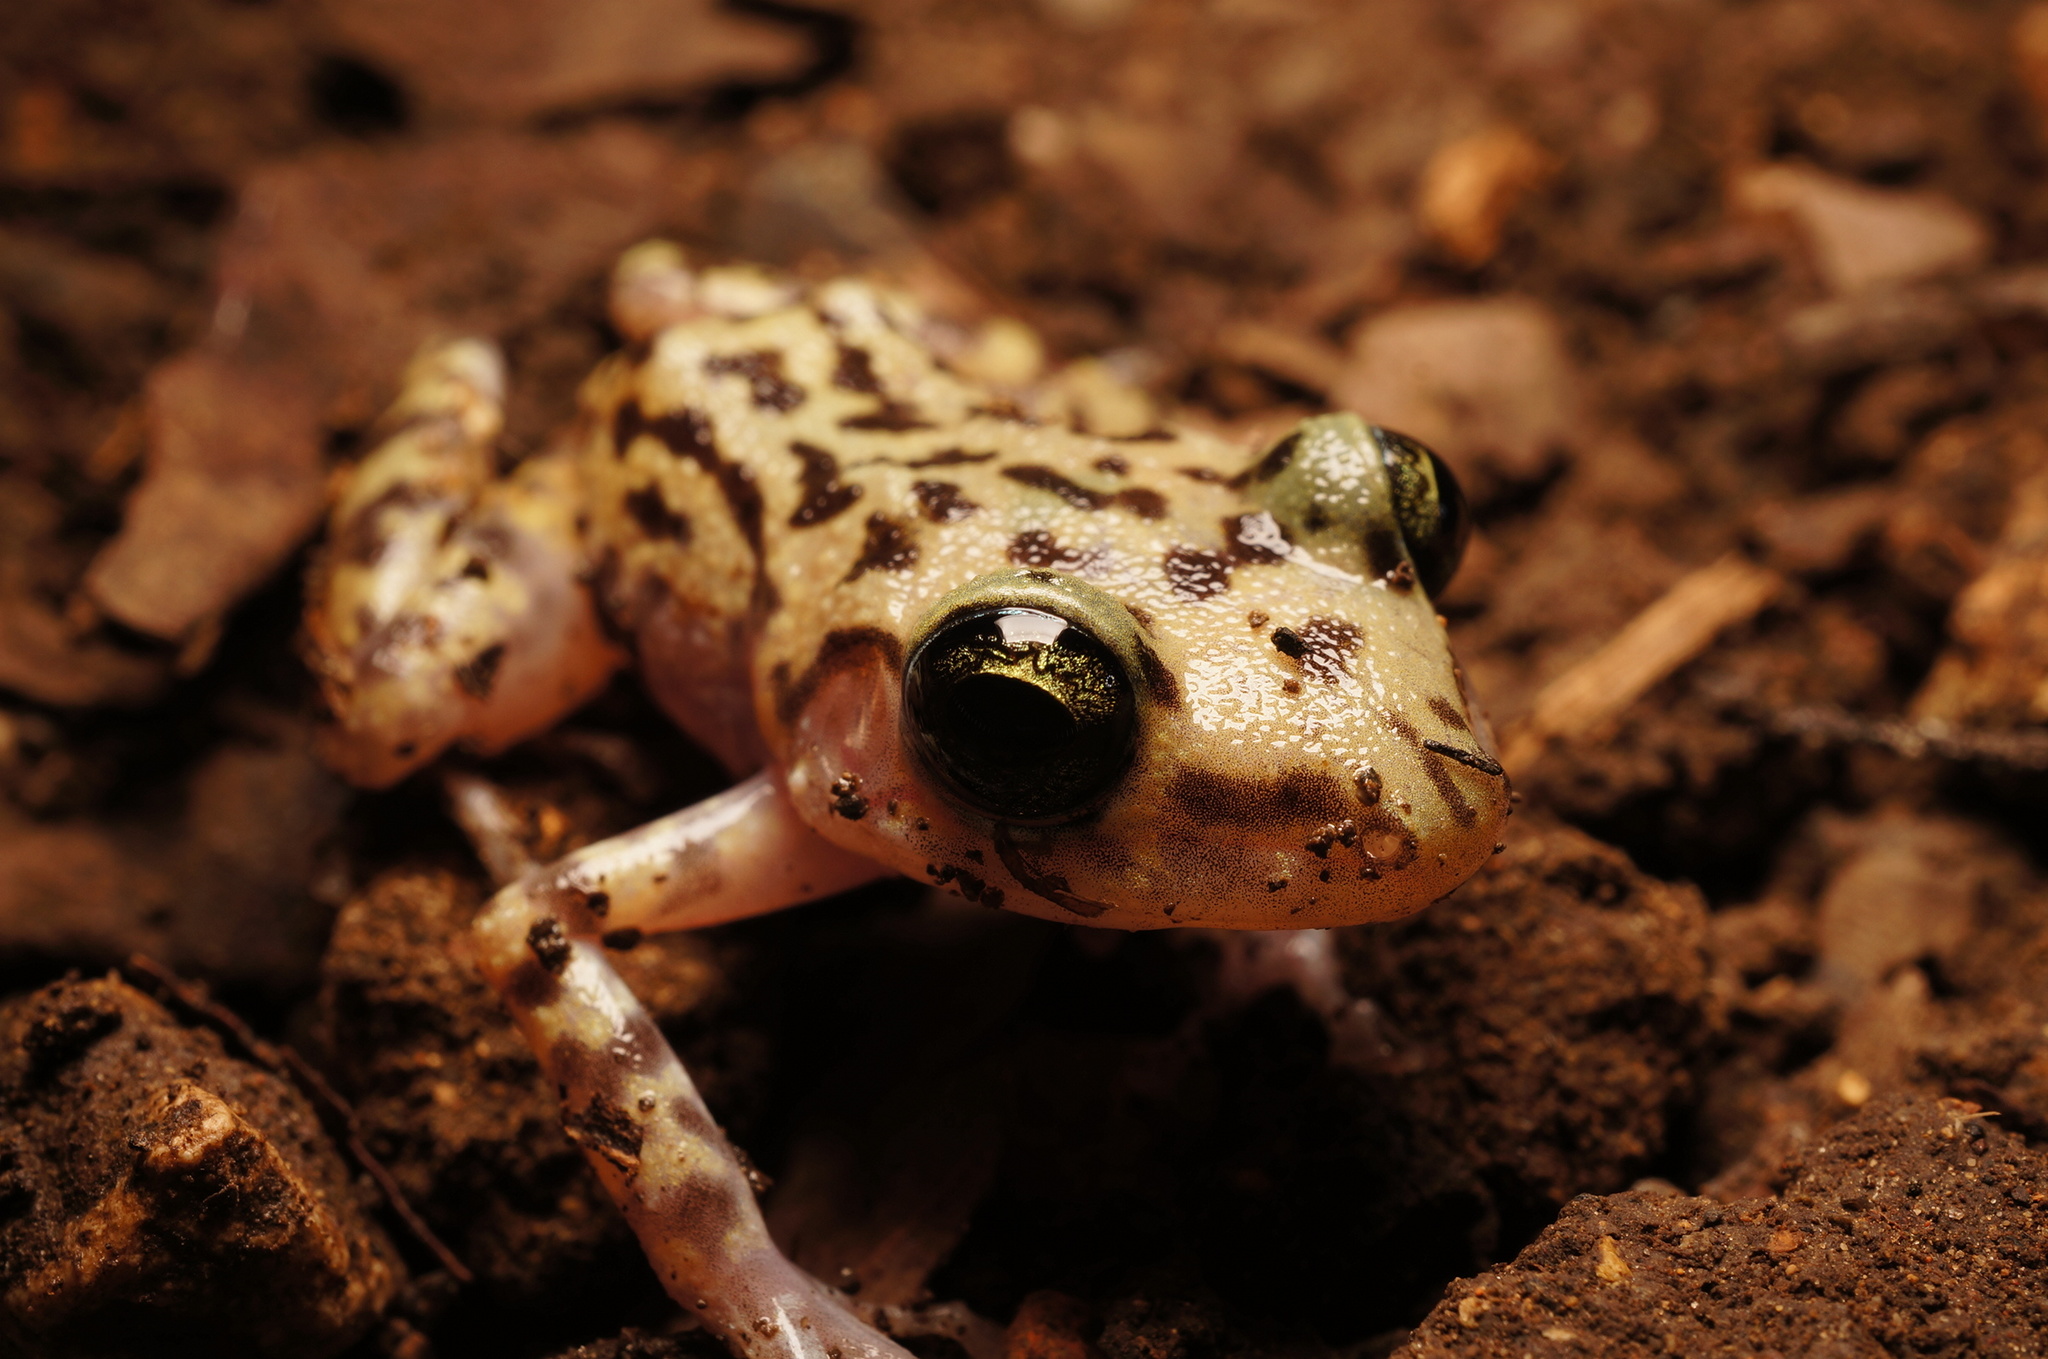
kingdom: Animalia
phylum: Chordata
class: Amphibia
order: Anura
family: Eleutherodactylidae
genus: Eleutherodactylus
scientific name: Eleutherodactylus longipes
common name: Long-footed chirping frog
